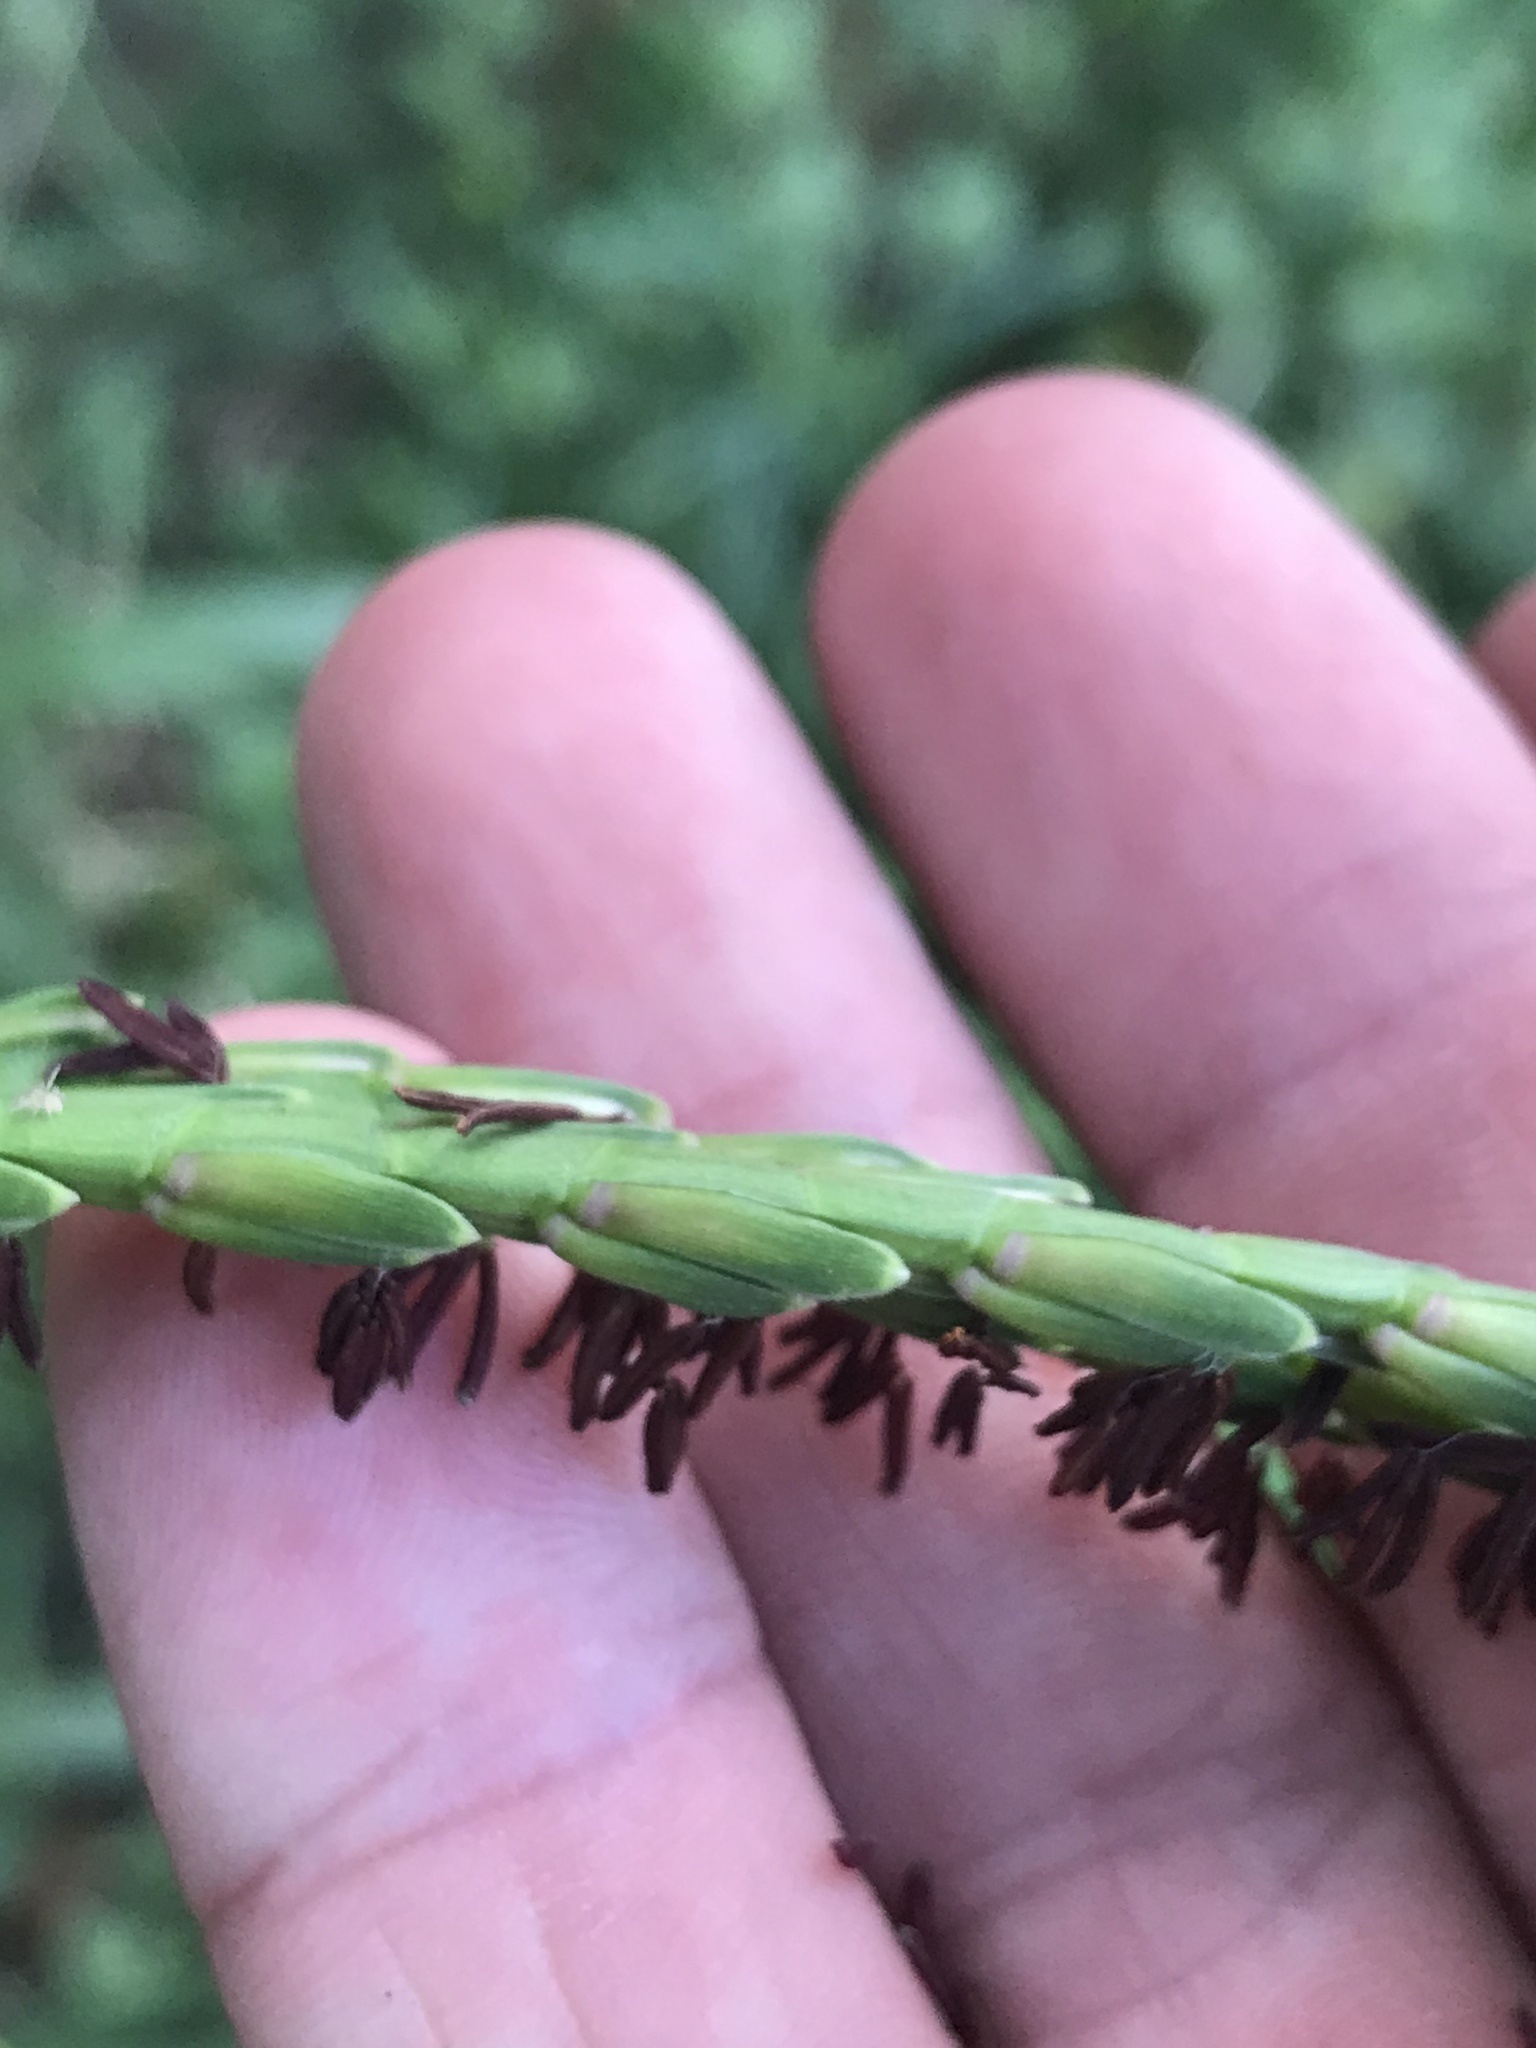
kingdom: Plantae
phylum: Tracheophyta
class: Liliopsida
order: Poales
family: Poaceae
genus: Tripsacum
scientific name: Tripsacum dactyloides
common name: Buffalo-grass
